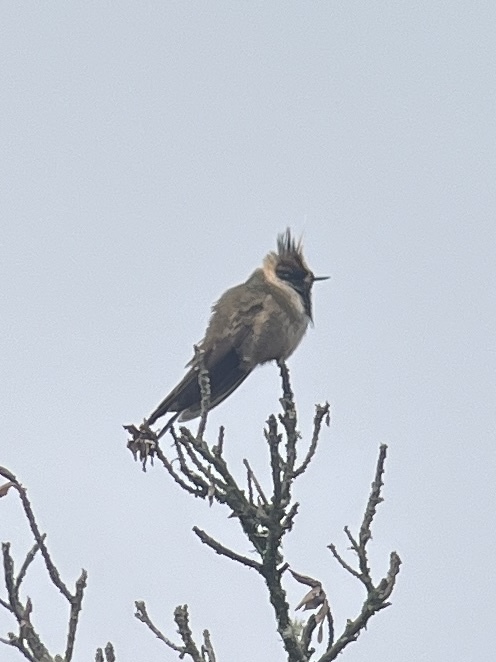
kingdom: Animalia
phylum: Chordata
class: Aves
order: Apodiformes
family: Trochilidae
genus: Oxypogon
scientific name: Oxypogon stuebelii
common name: Buffy helmetcrest
